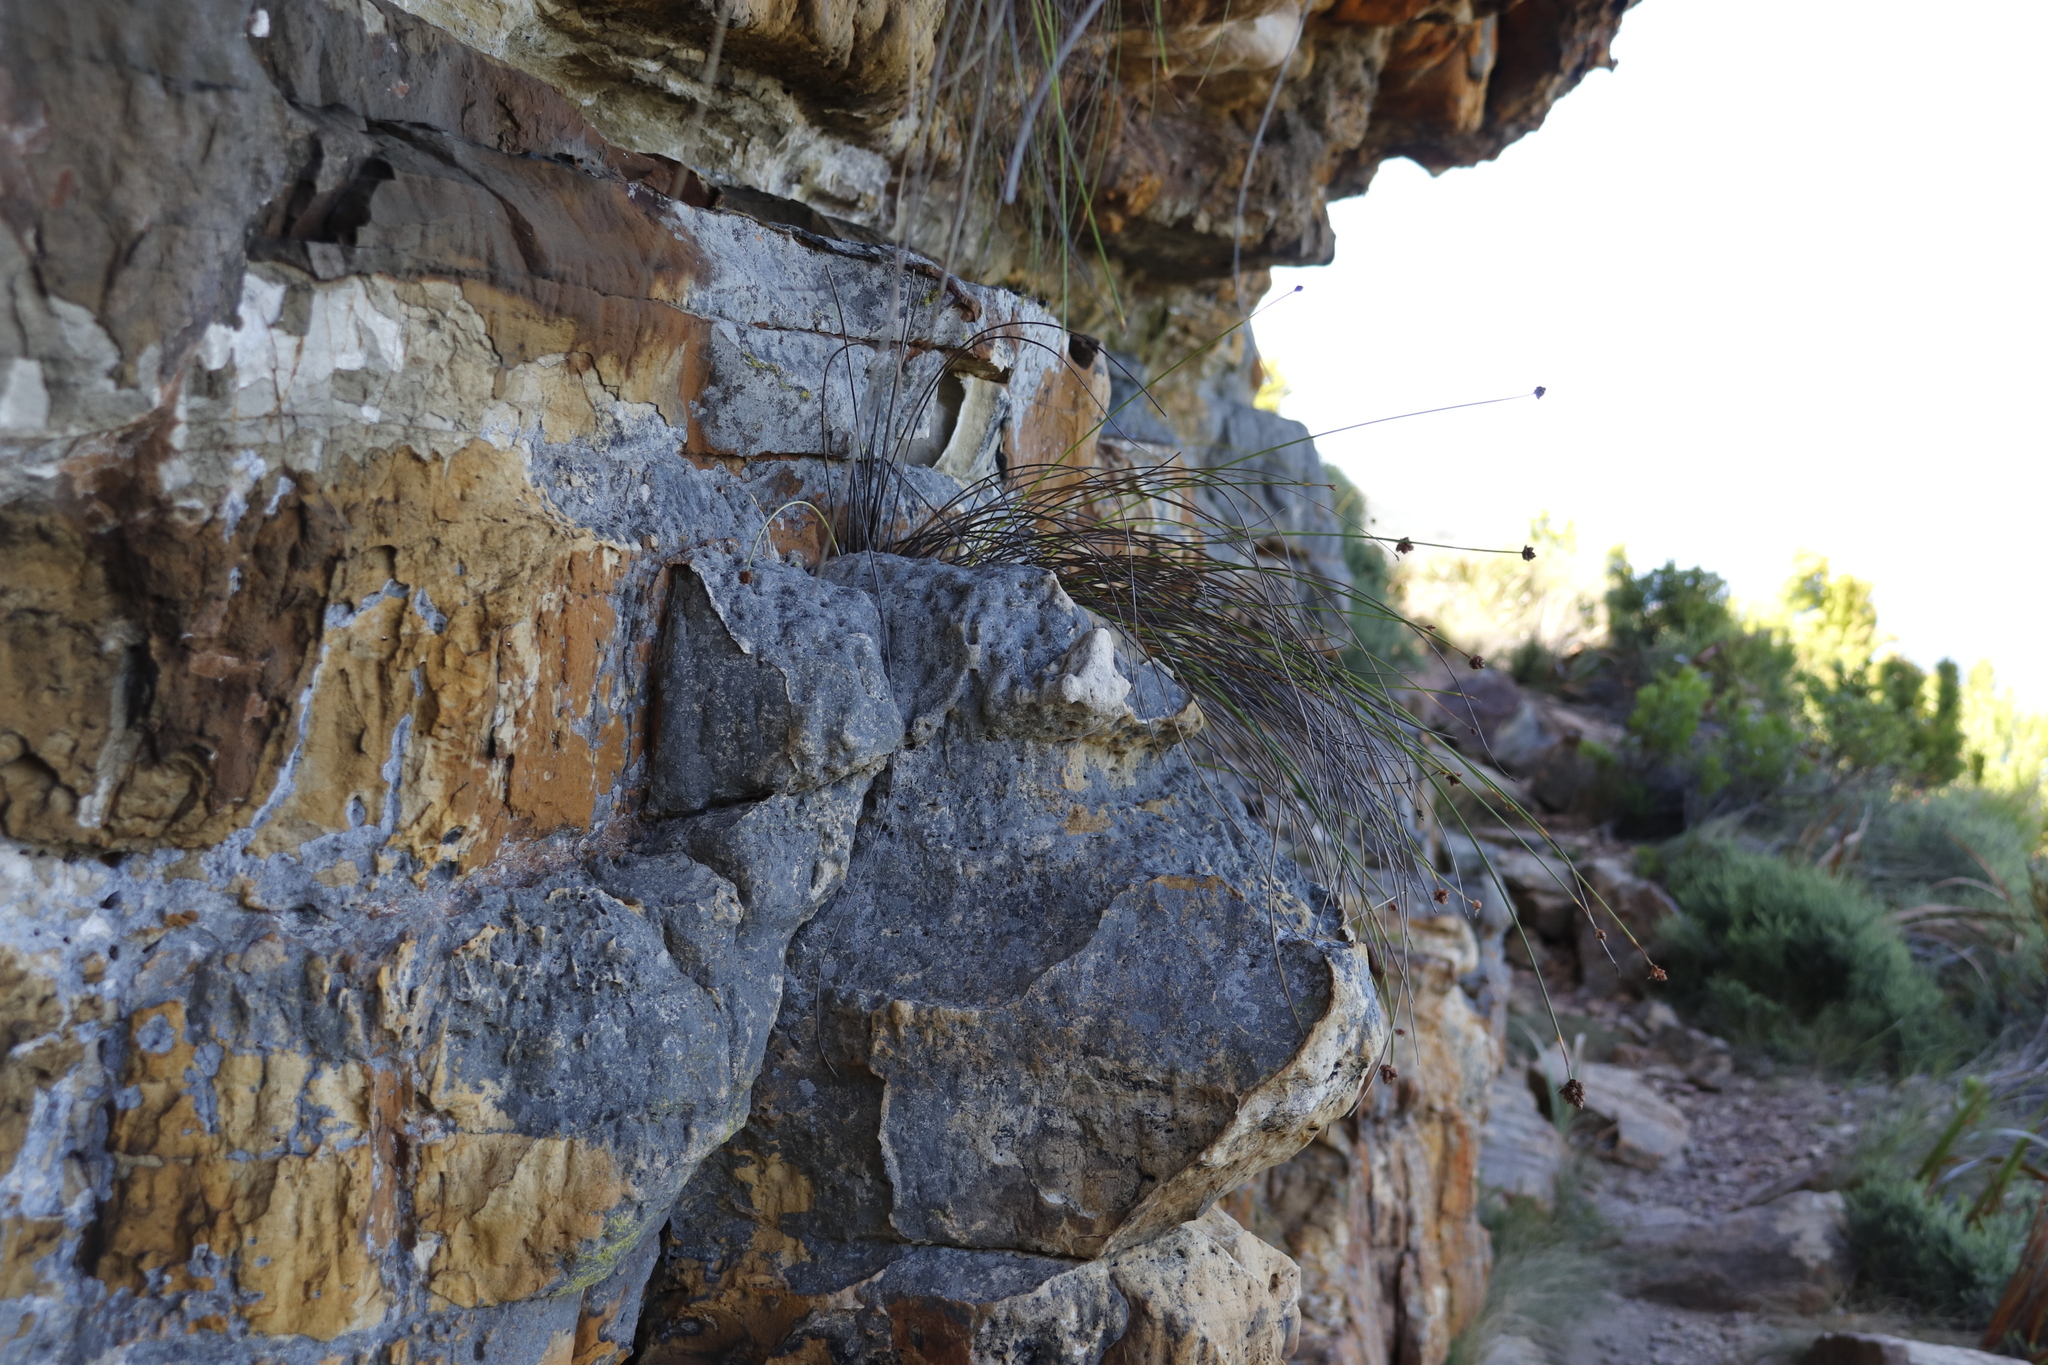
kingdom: Plantae
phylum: Tracheophyta
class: Liliopsida
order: Poales
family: Cyperaceae
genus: Ficinia
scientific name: Ficinia brevifolia
